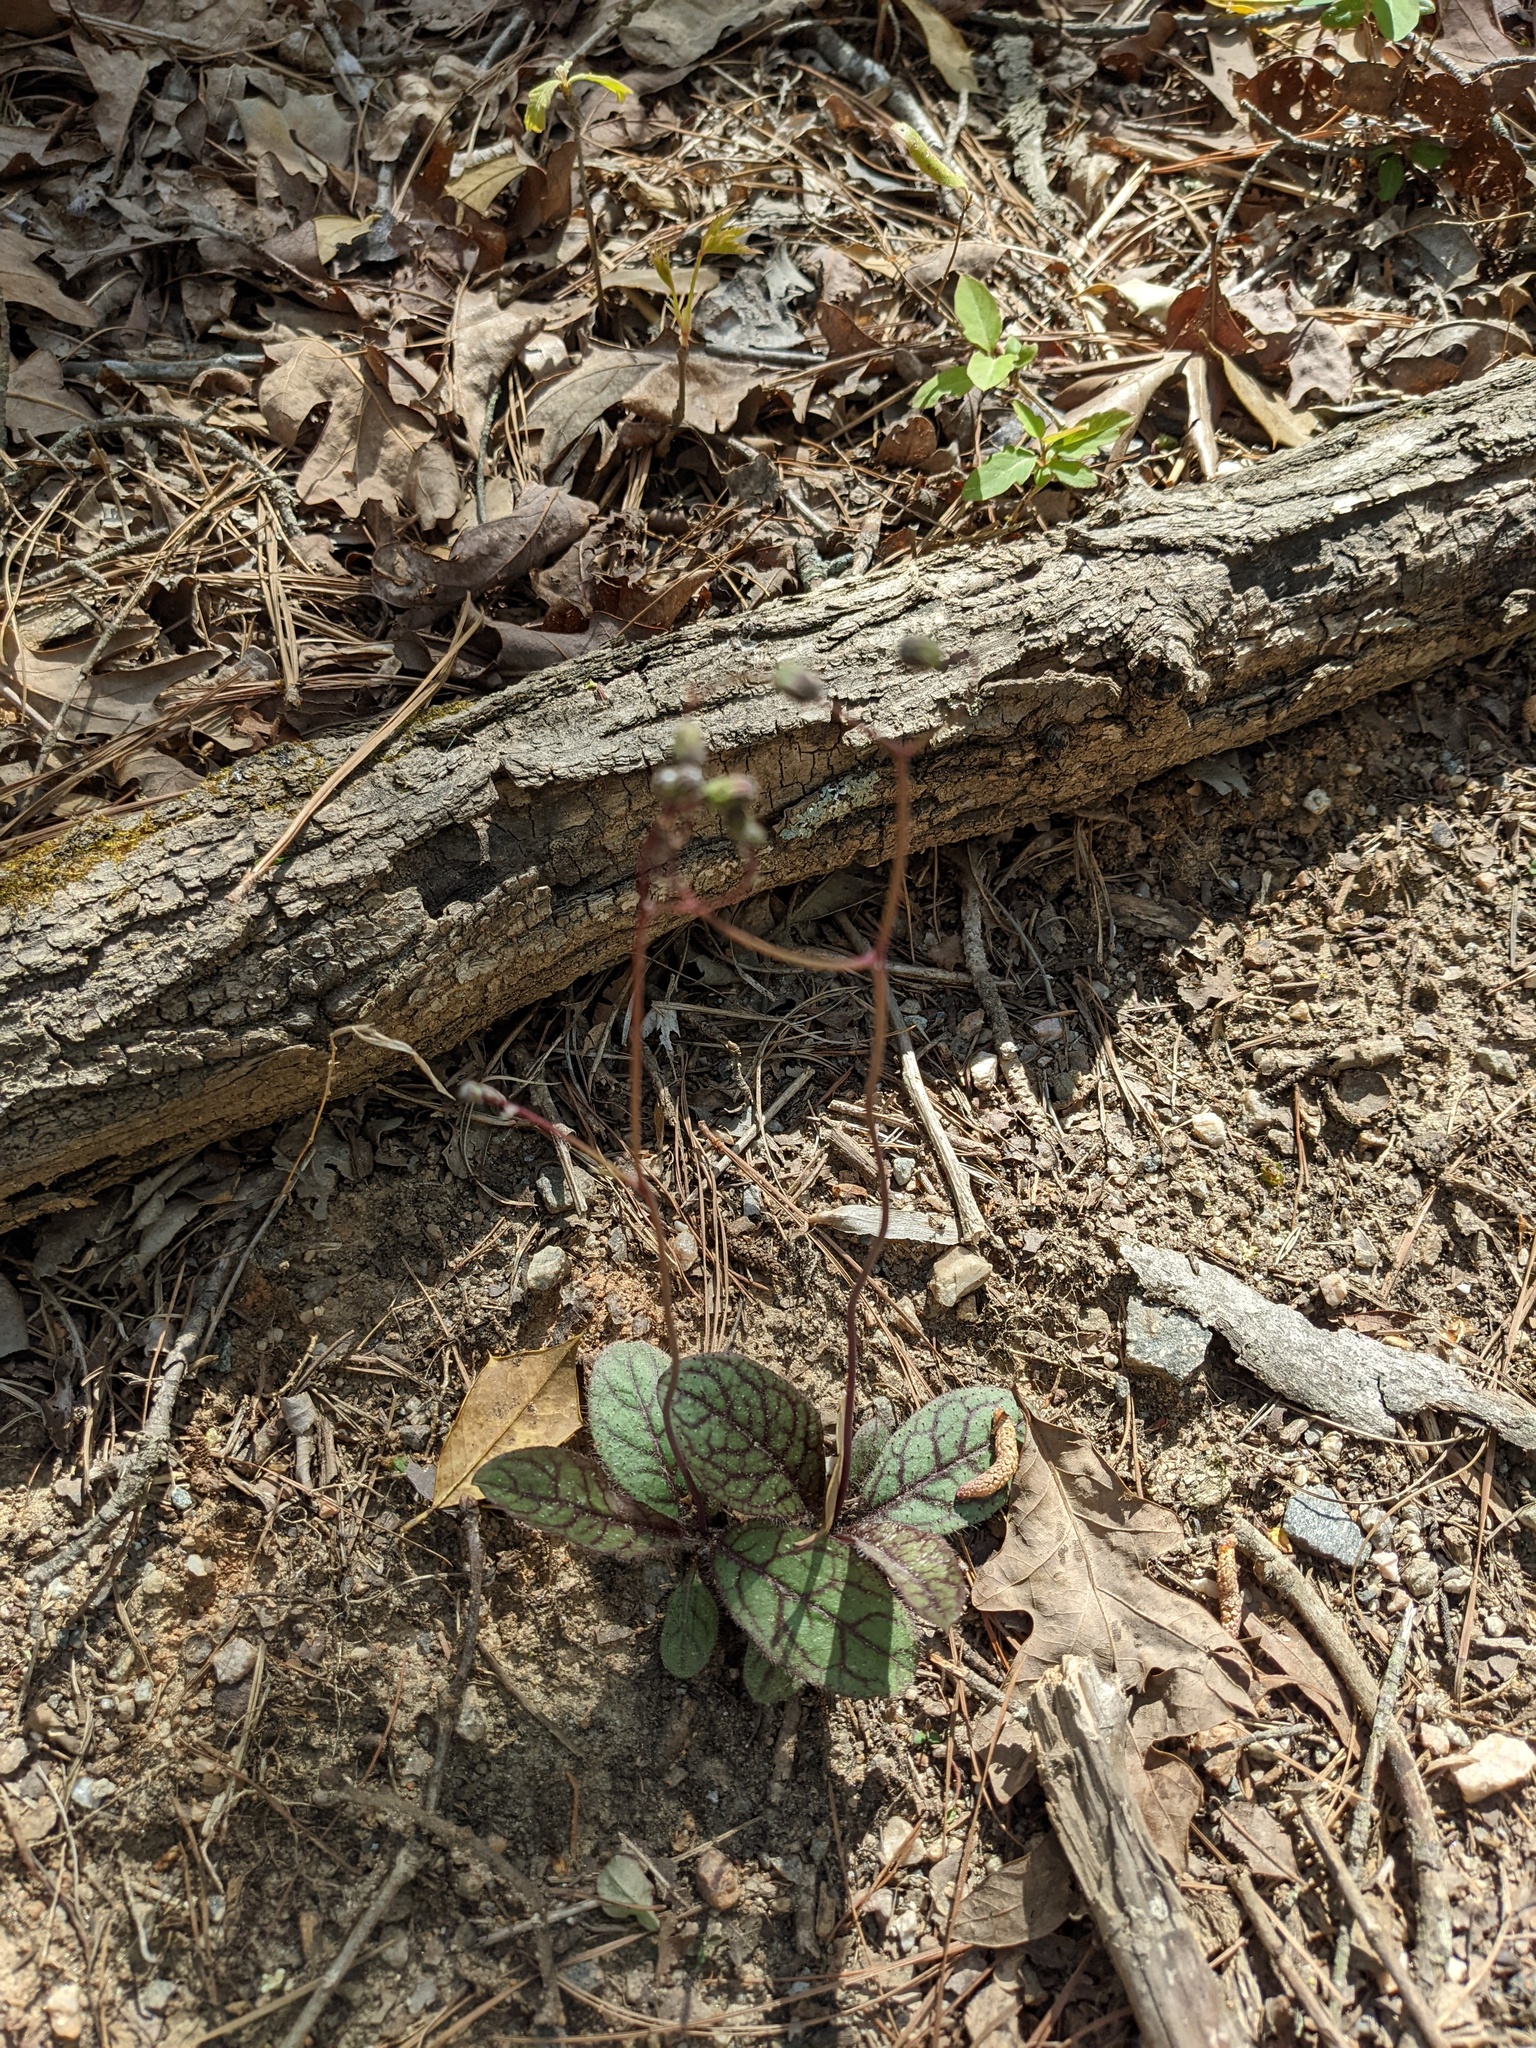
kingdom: Plantae
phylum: Tracheophyta
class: Magnoliopsida
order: Asterales
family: Asteraceae
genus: Hieracium
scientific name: Hieracium venosum
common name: Rattlesnake hawkweed
